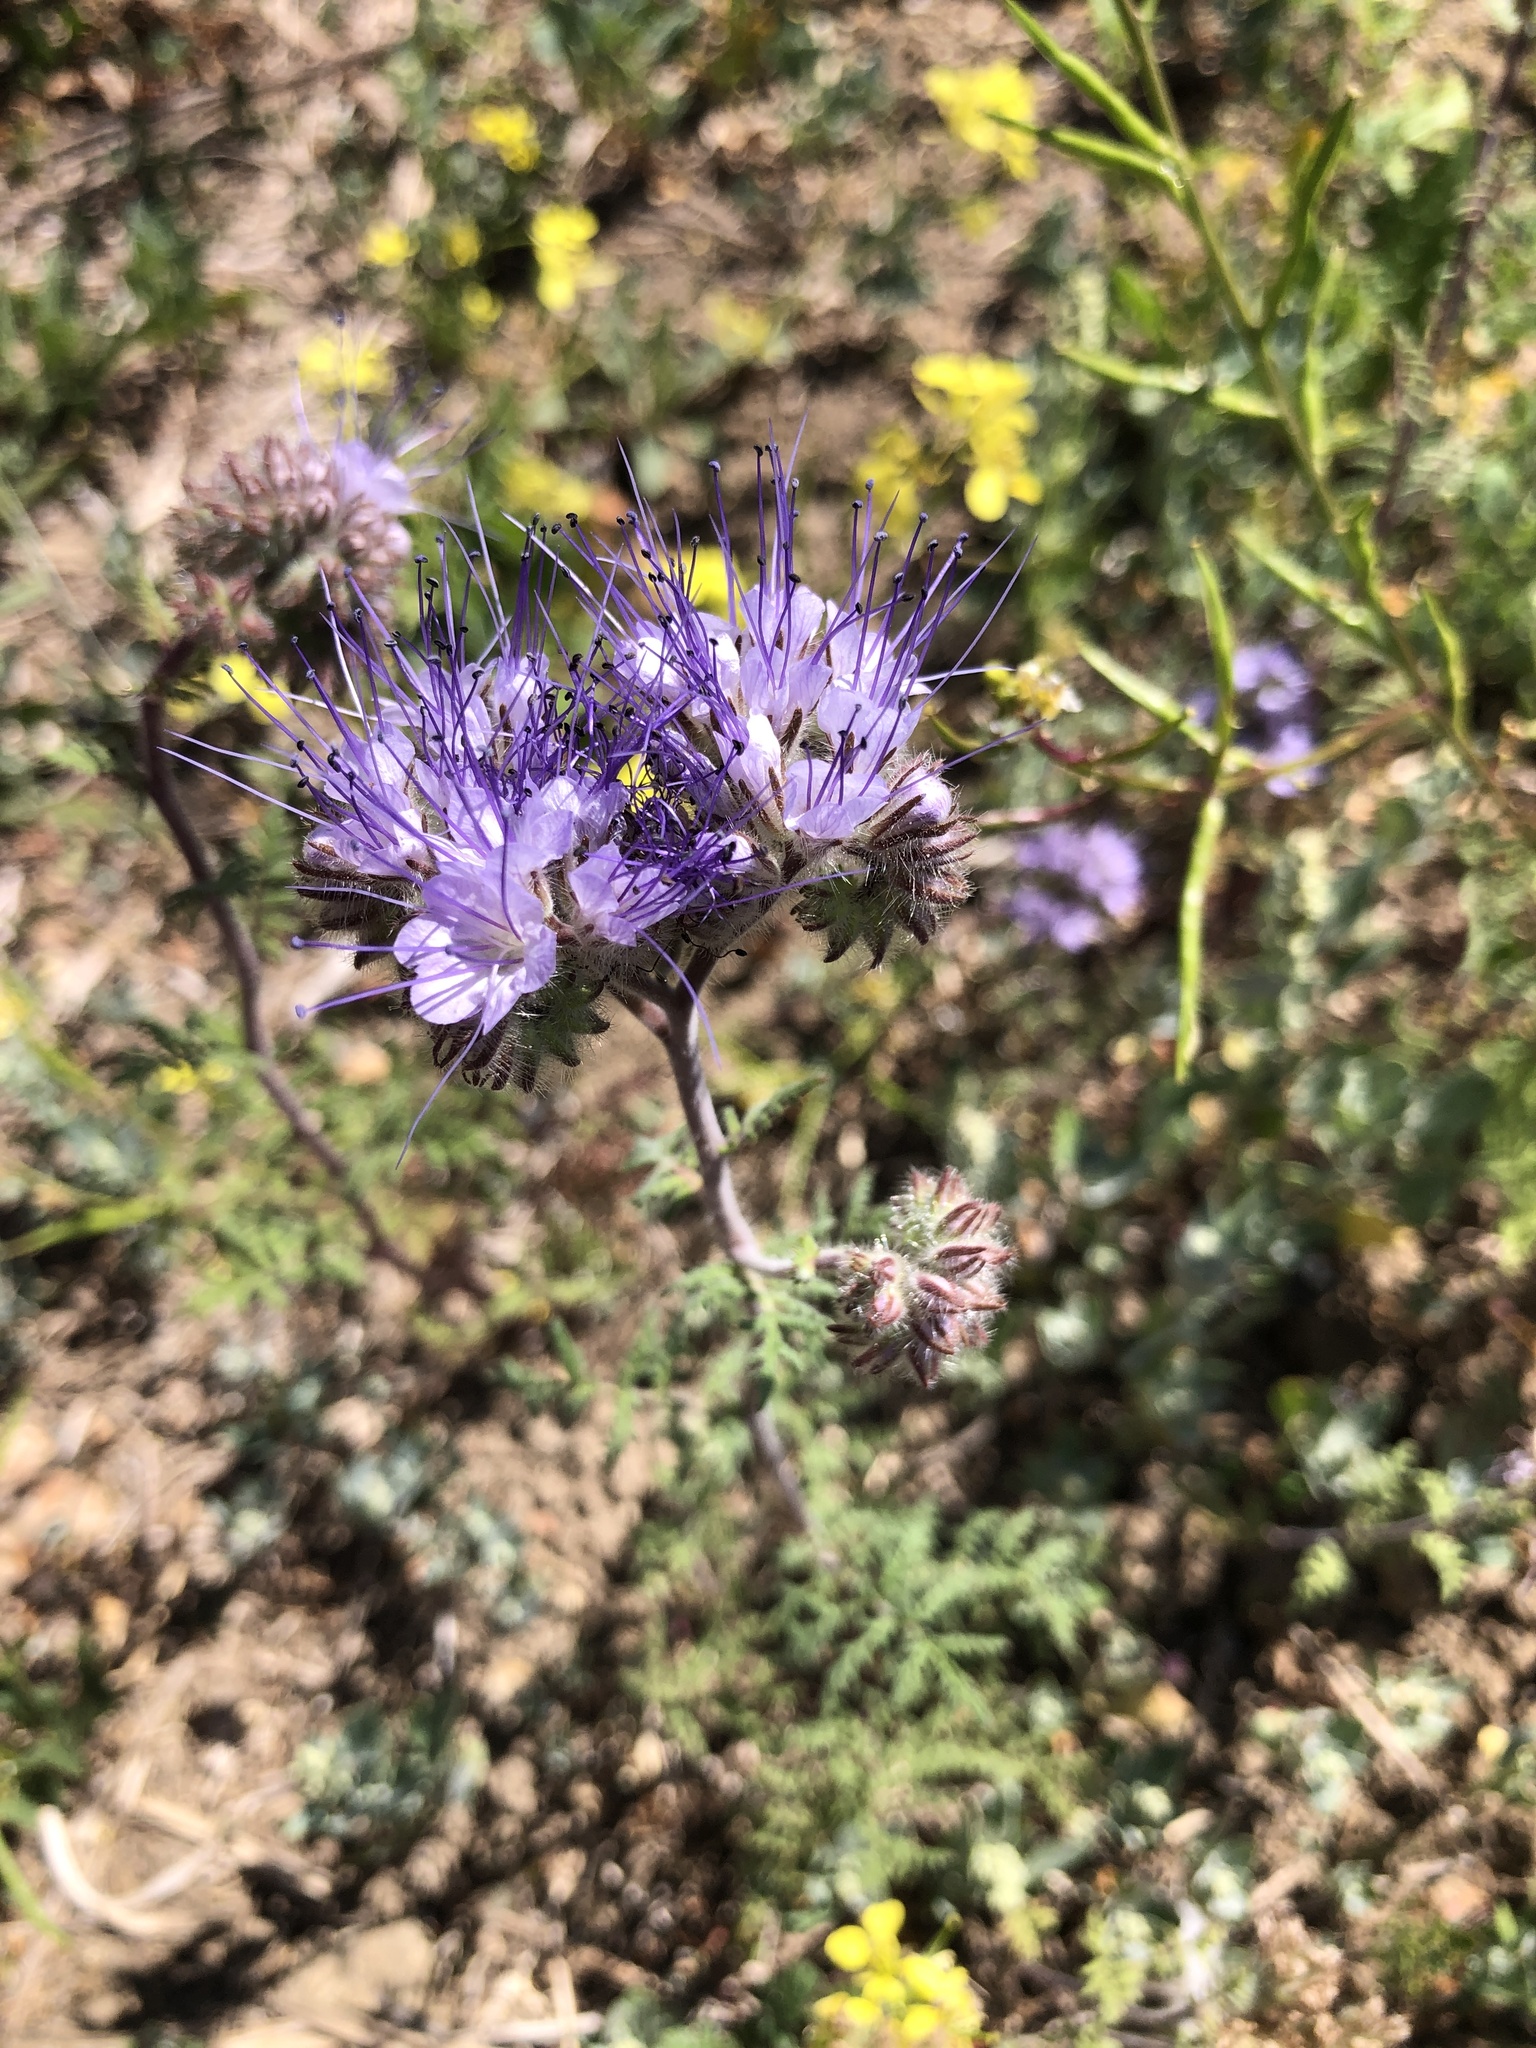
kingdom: Plantae
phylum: Tracheophyta
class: Magnoliopsida
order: Boraginales
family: Hydrophyllaceae
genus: Phacelia
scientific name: Phacelia tanacetifolia
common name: Phacelia
